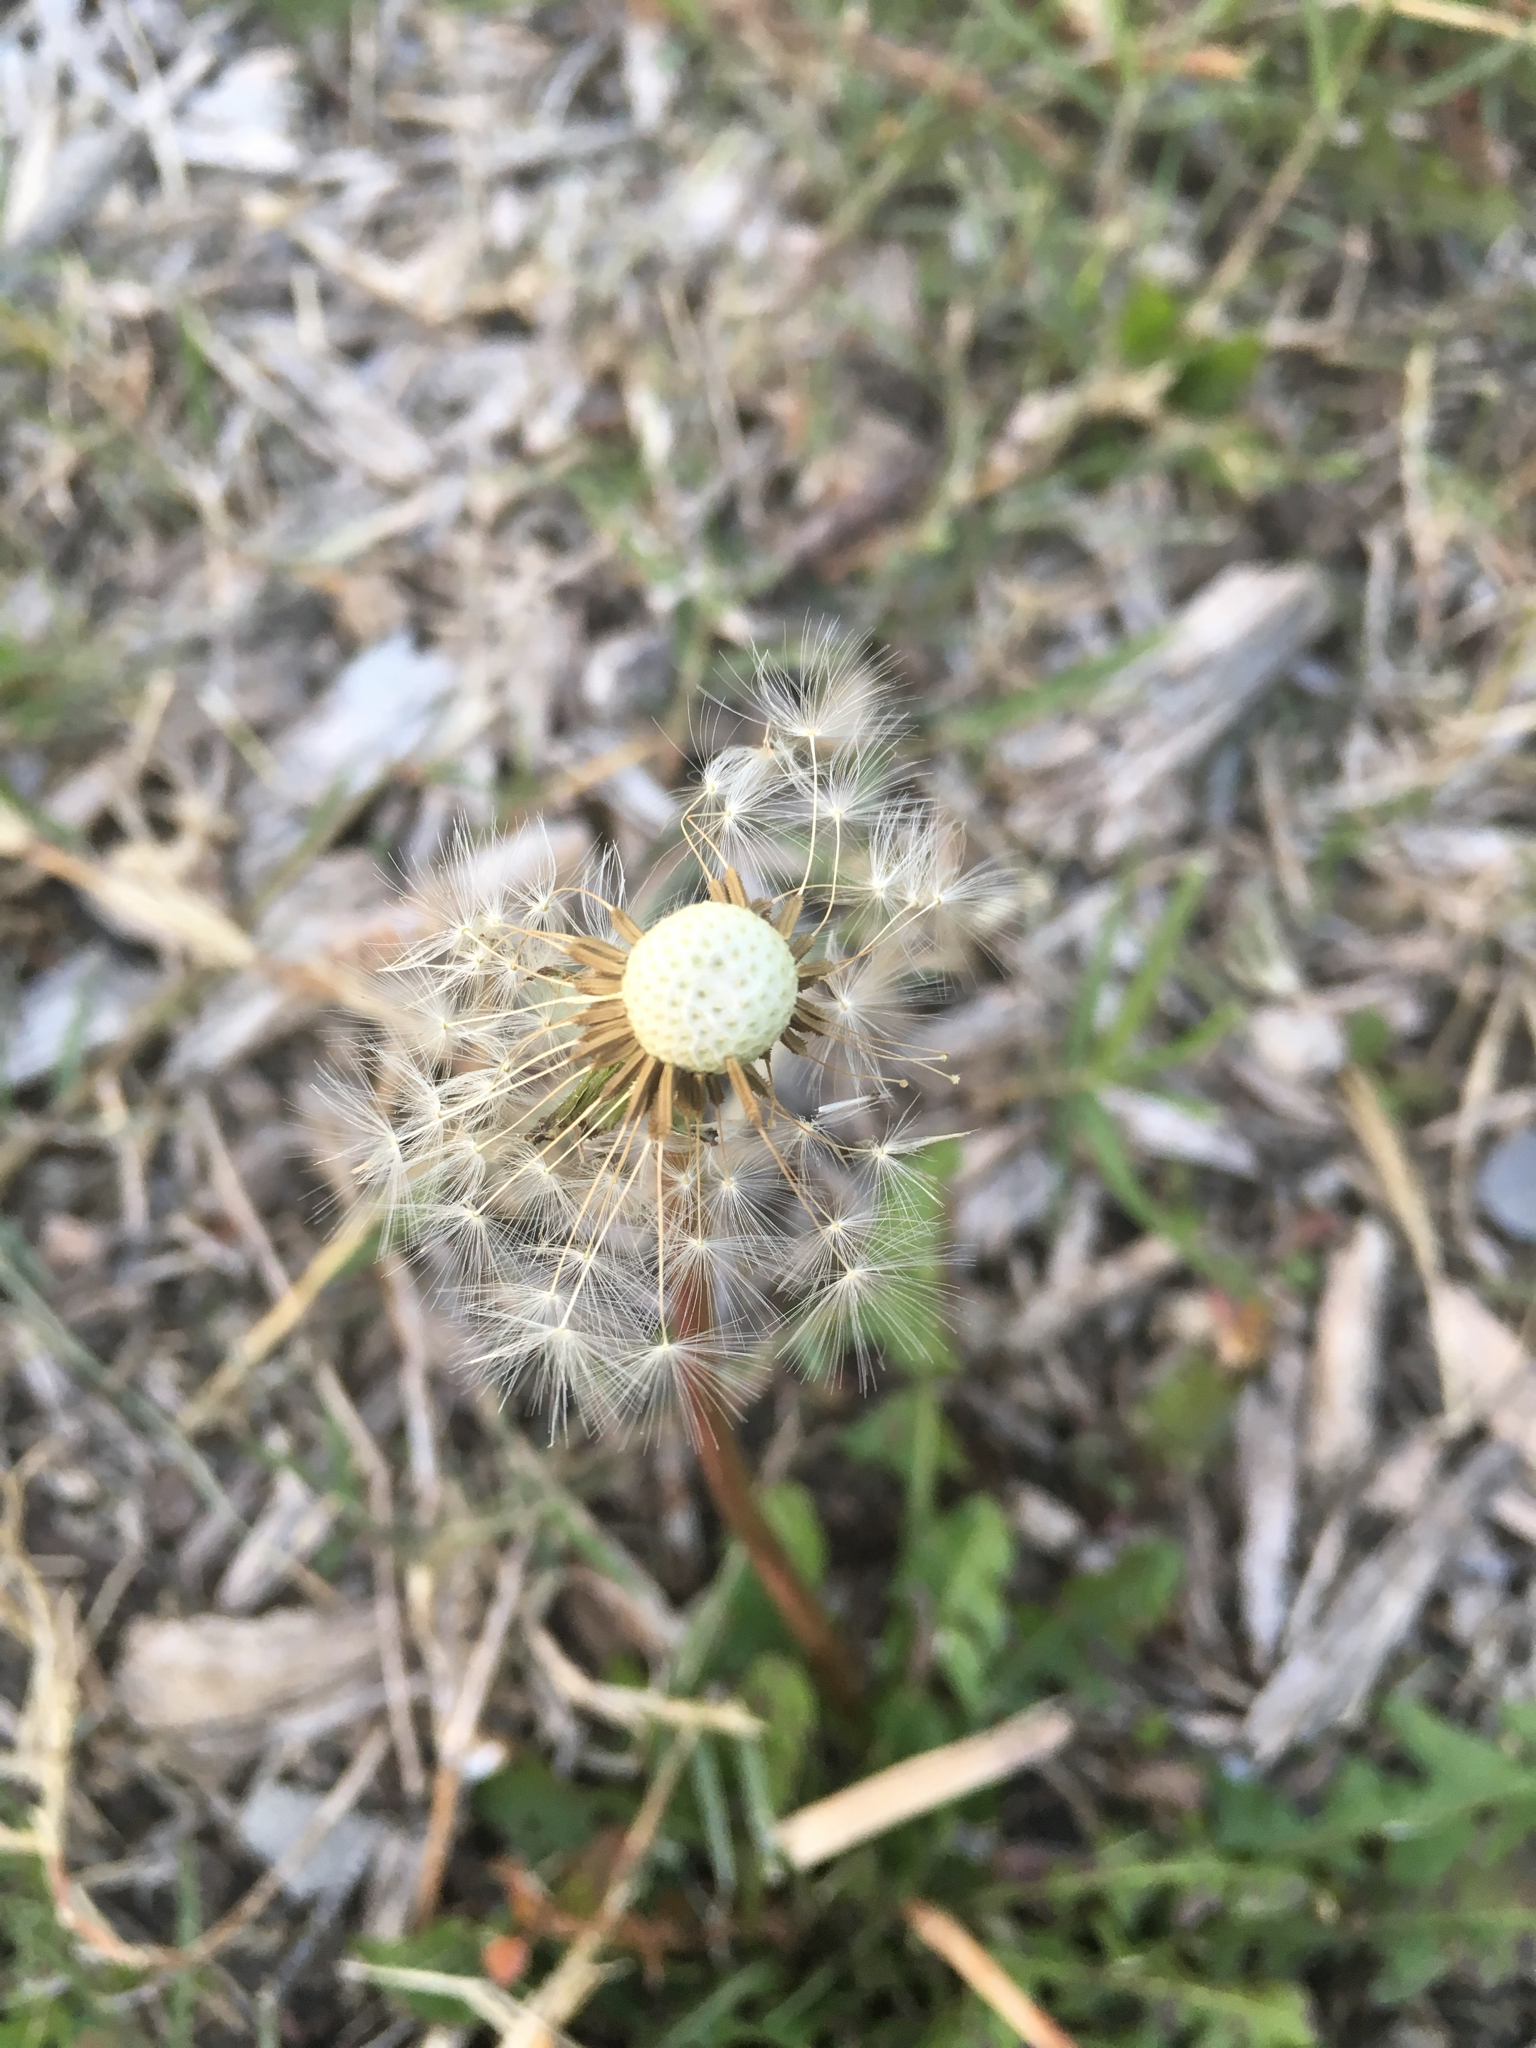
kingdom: Plantae
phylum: Tracheophyta
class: Magnoliopsida
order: Asterales
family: Asteraceae
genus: Taraxacum
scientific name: Taraxacum officinale
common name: Common dandelion
